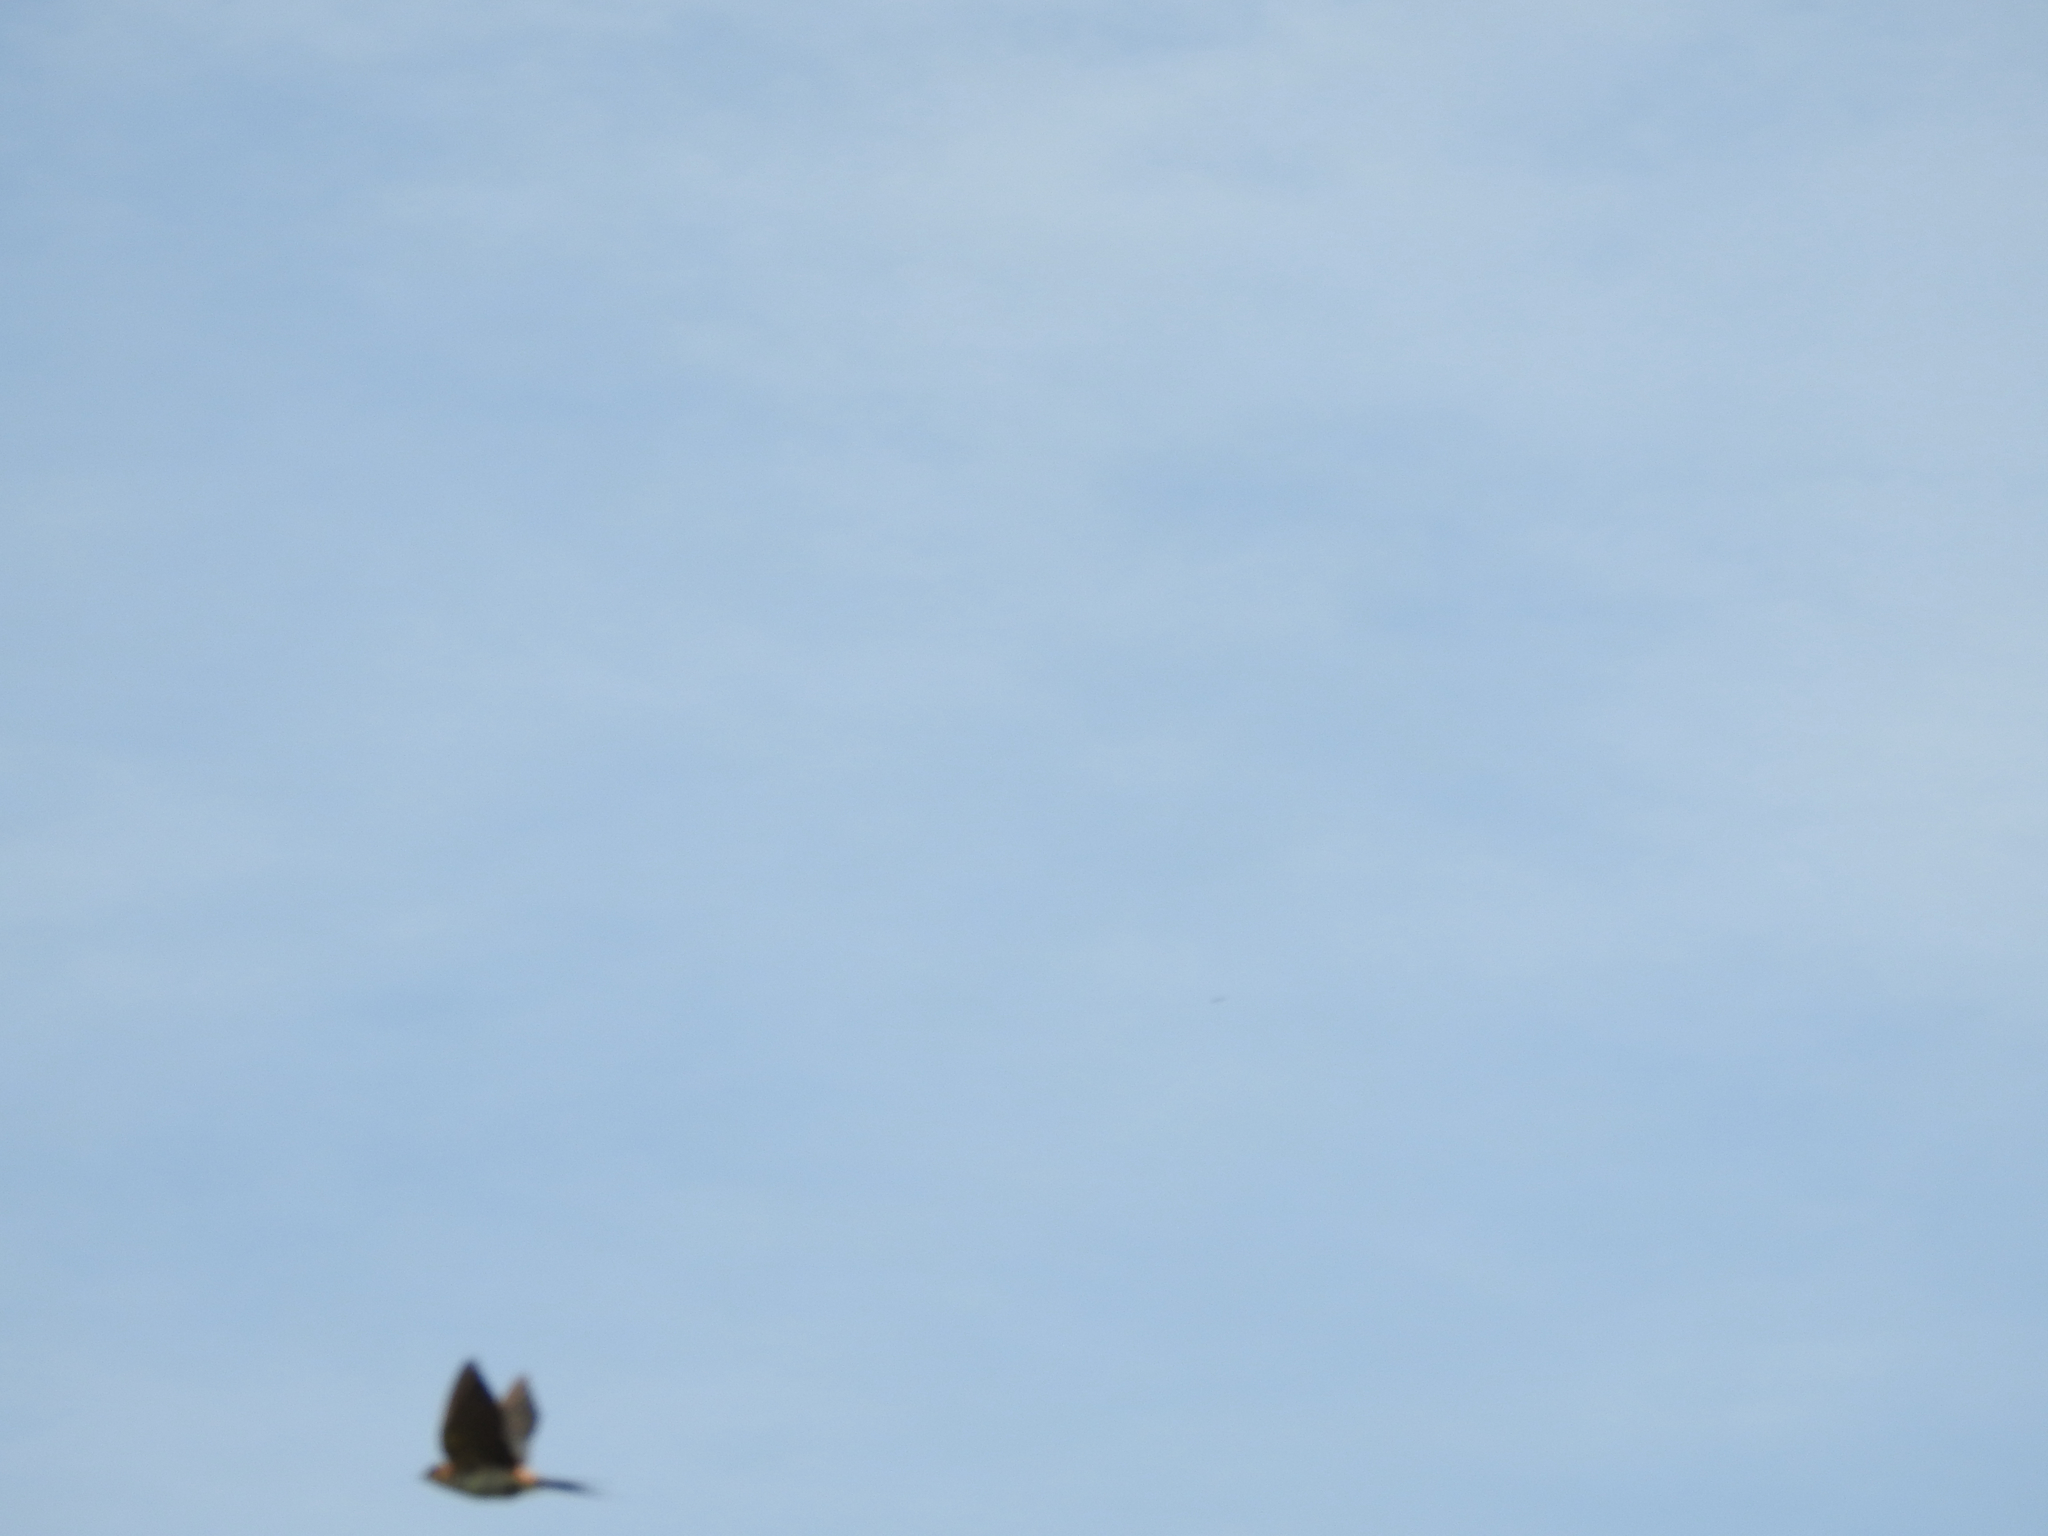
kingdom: Animalia
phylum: Chordata
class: Aves
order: Passeriformes
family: Hirundinidae
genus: Cecropis
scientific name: Cecropis daurica
